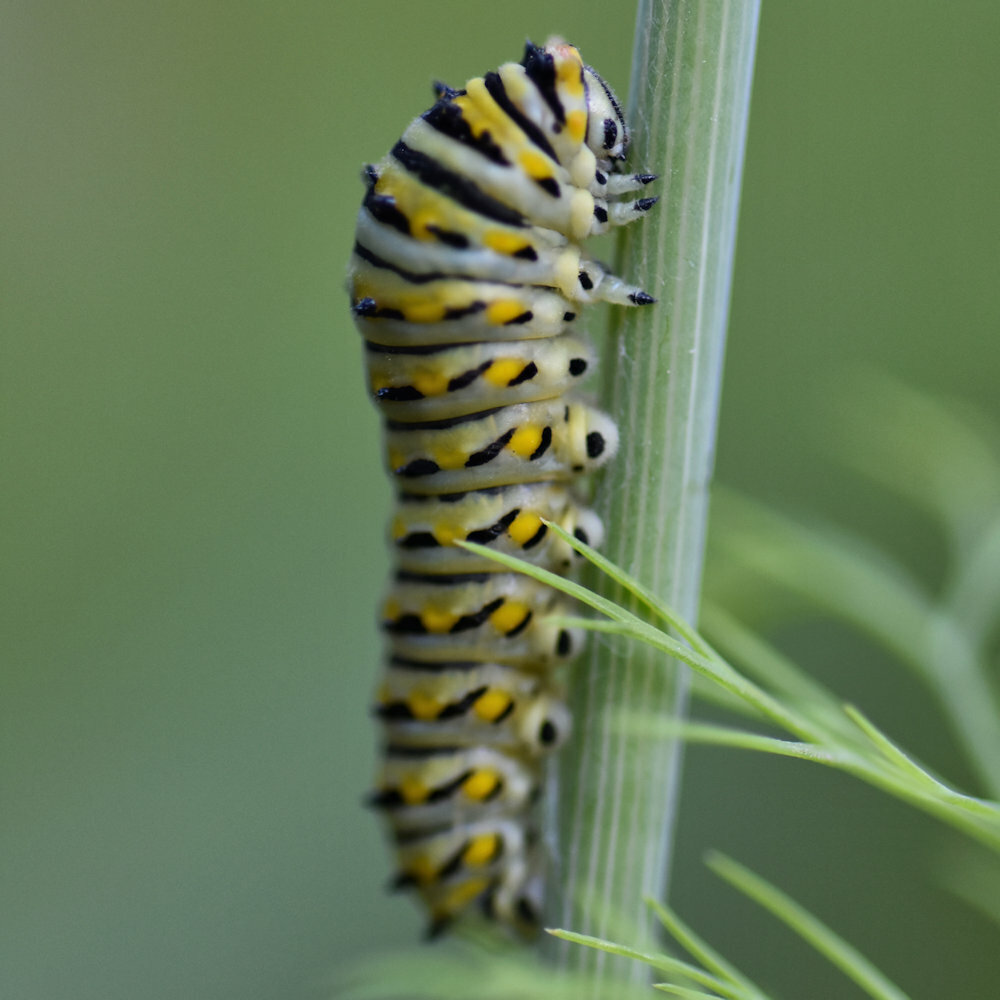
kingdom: Animalia
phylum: Arthropoda
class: Insecta
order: Lepidoptera
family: Papilionidae
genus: Papilio
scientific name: Papilio polyxenes
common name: Black swallowtail
